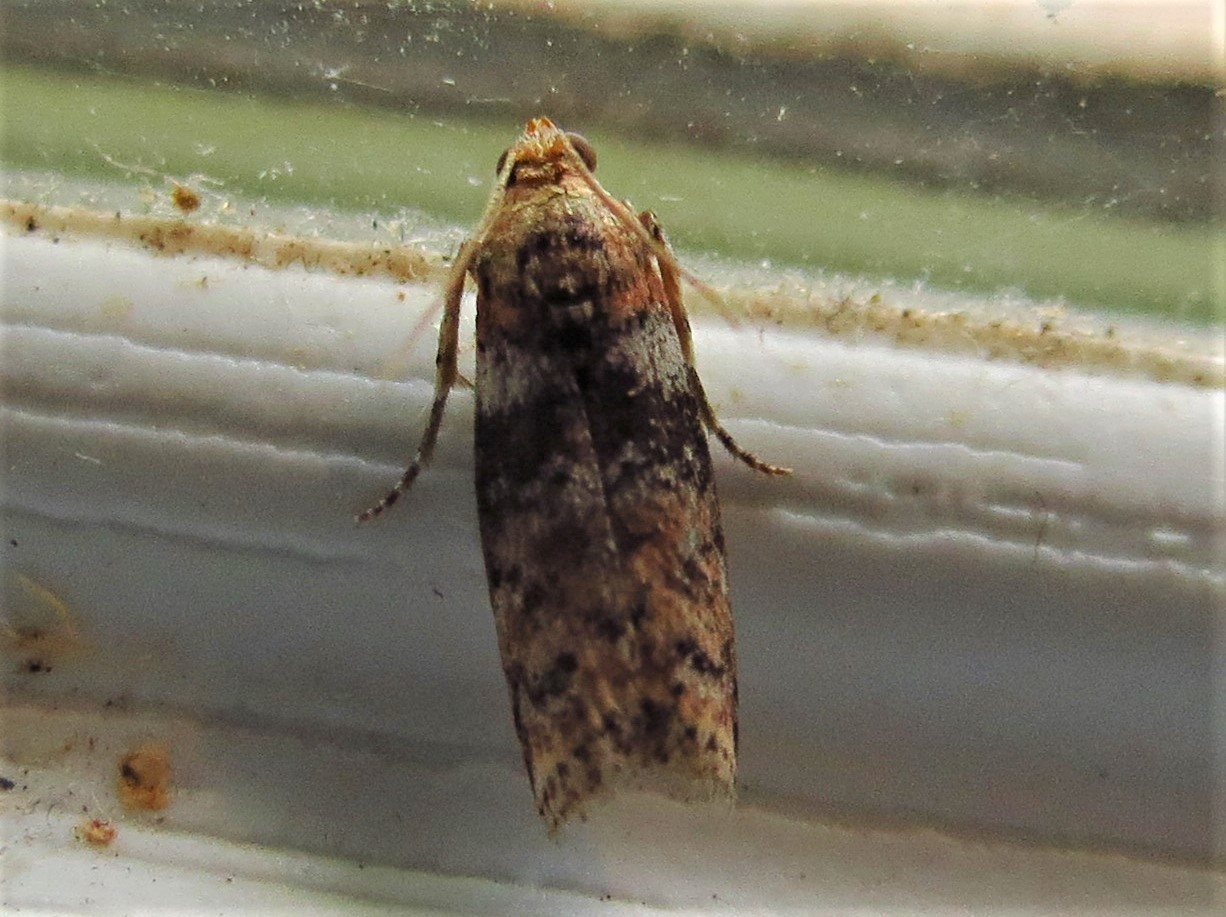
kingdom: Animalia
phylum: Arthropoda
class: Insecta
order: Lepidoptera
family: Pyralidae
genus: Sciota
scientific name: Sciota celtidella
